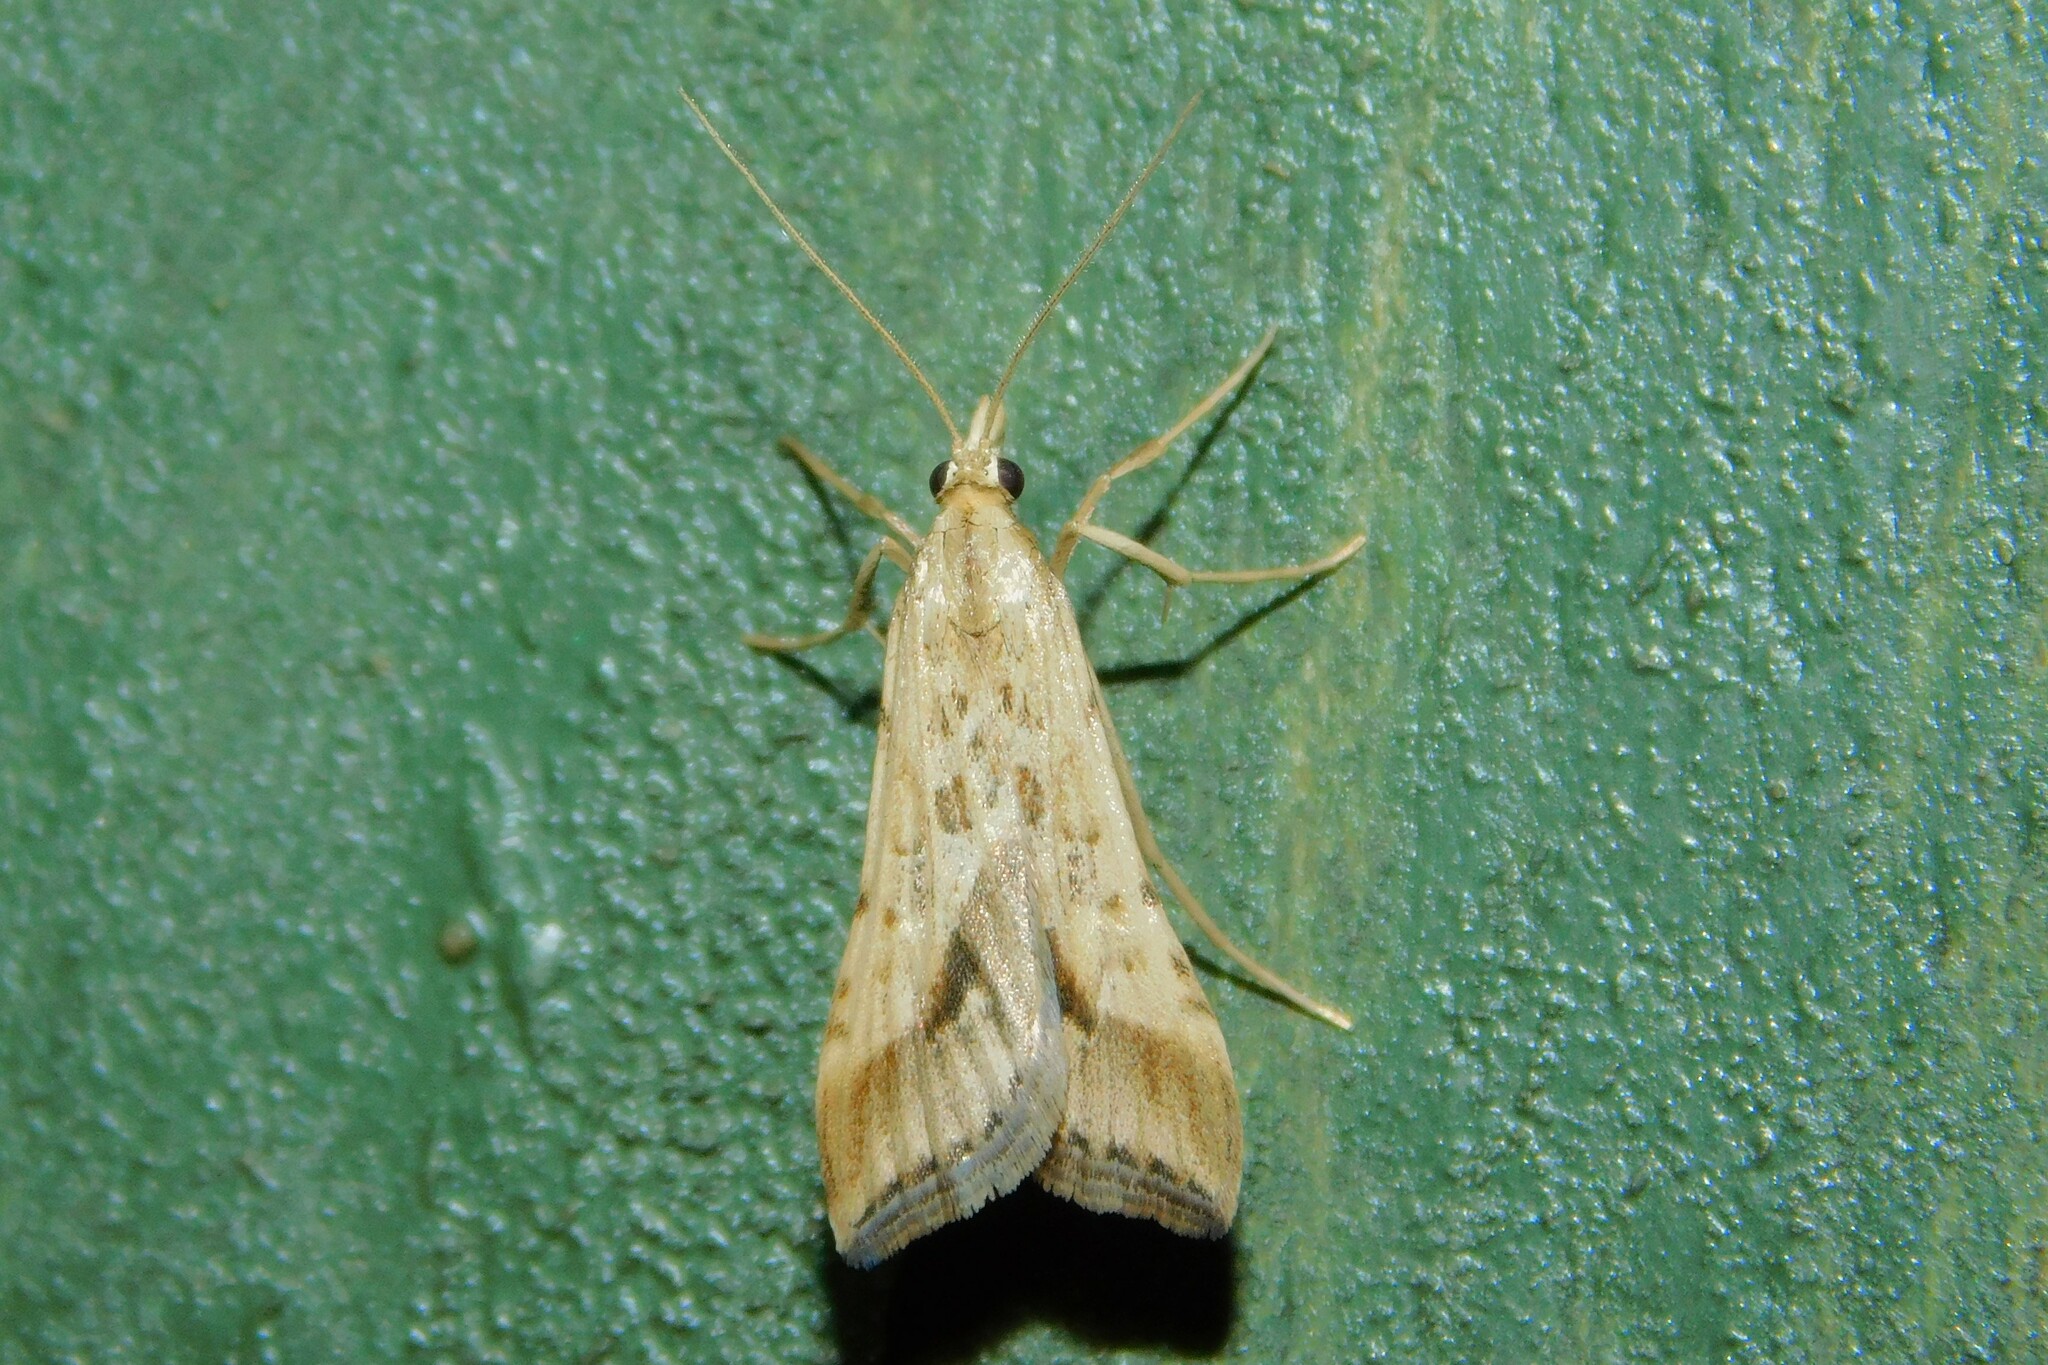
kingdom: Animalia
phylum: Arthropoda
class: Insecta
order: Lepidoptera
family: Crambidae
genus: Diasemia
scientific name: Diasemia monostigma
